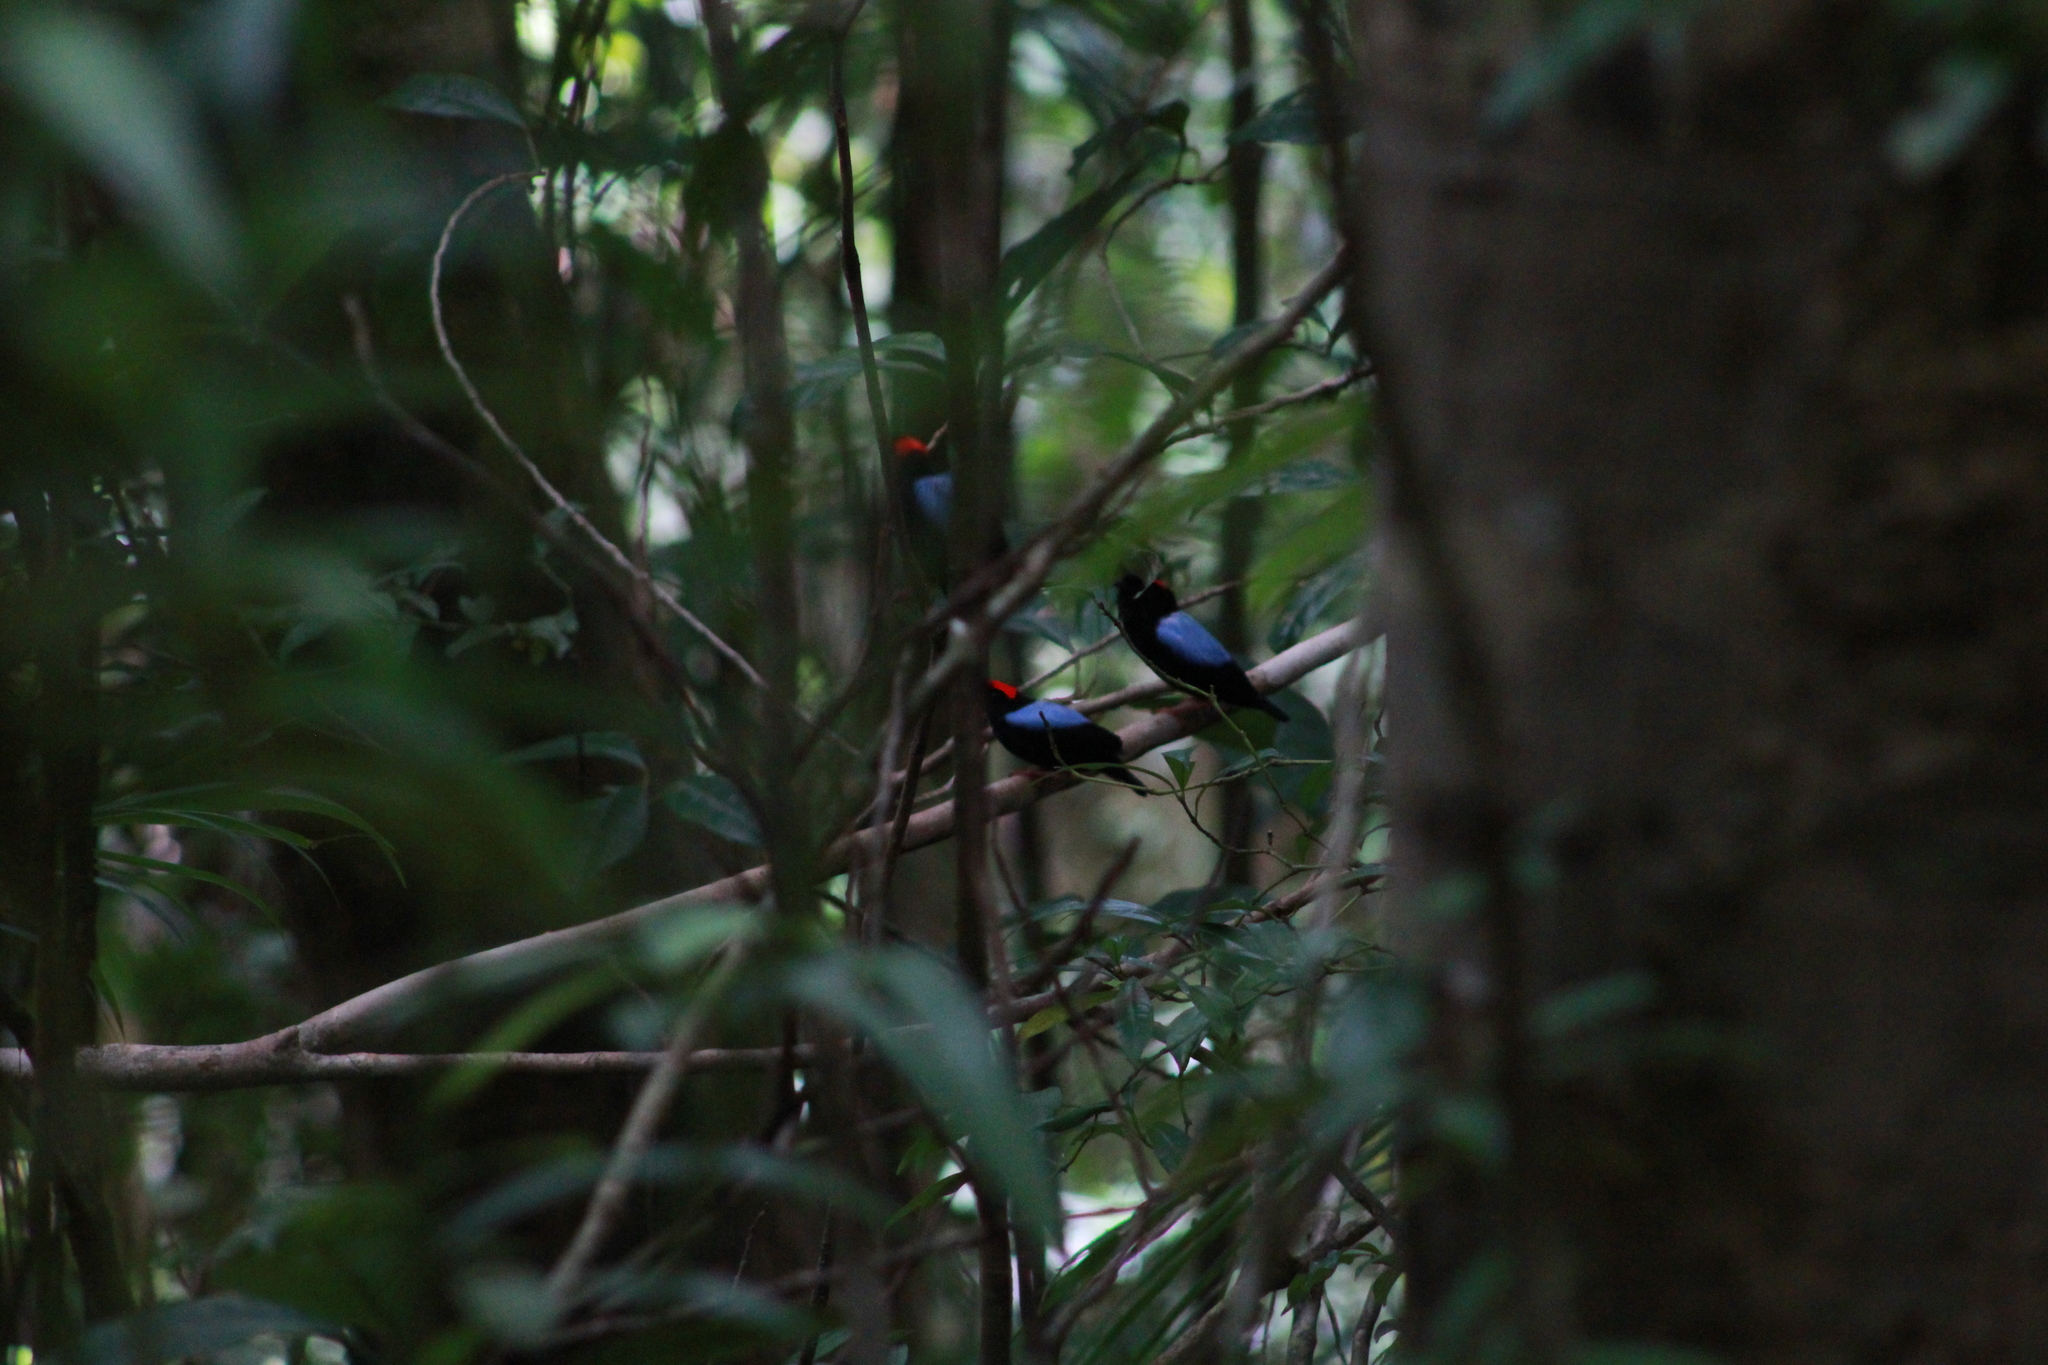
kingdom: Animalia
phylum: Chordata
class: Aves
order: Passeriformes
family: Pipridae
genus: Chiroxiphia
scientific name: Chiroxiphia pareola
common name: Blue-backed manakin
